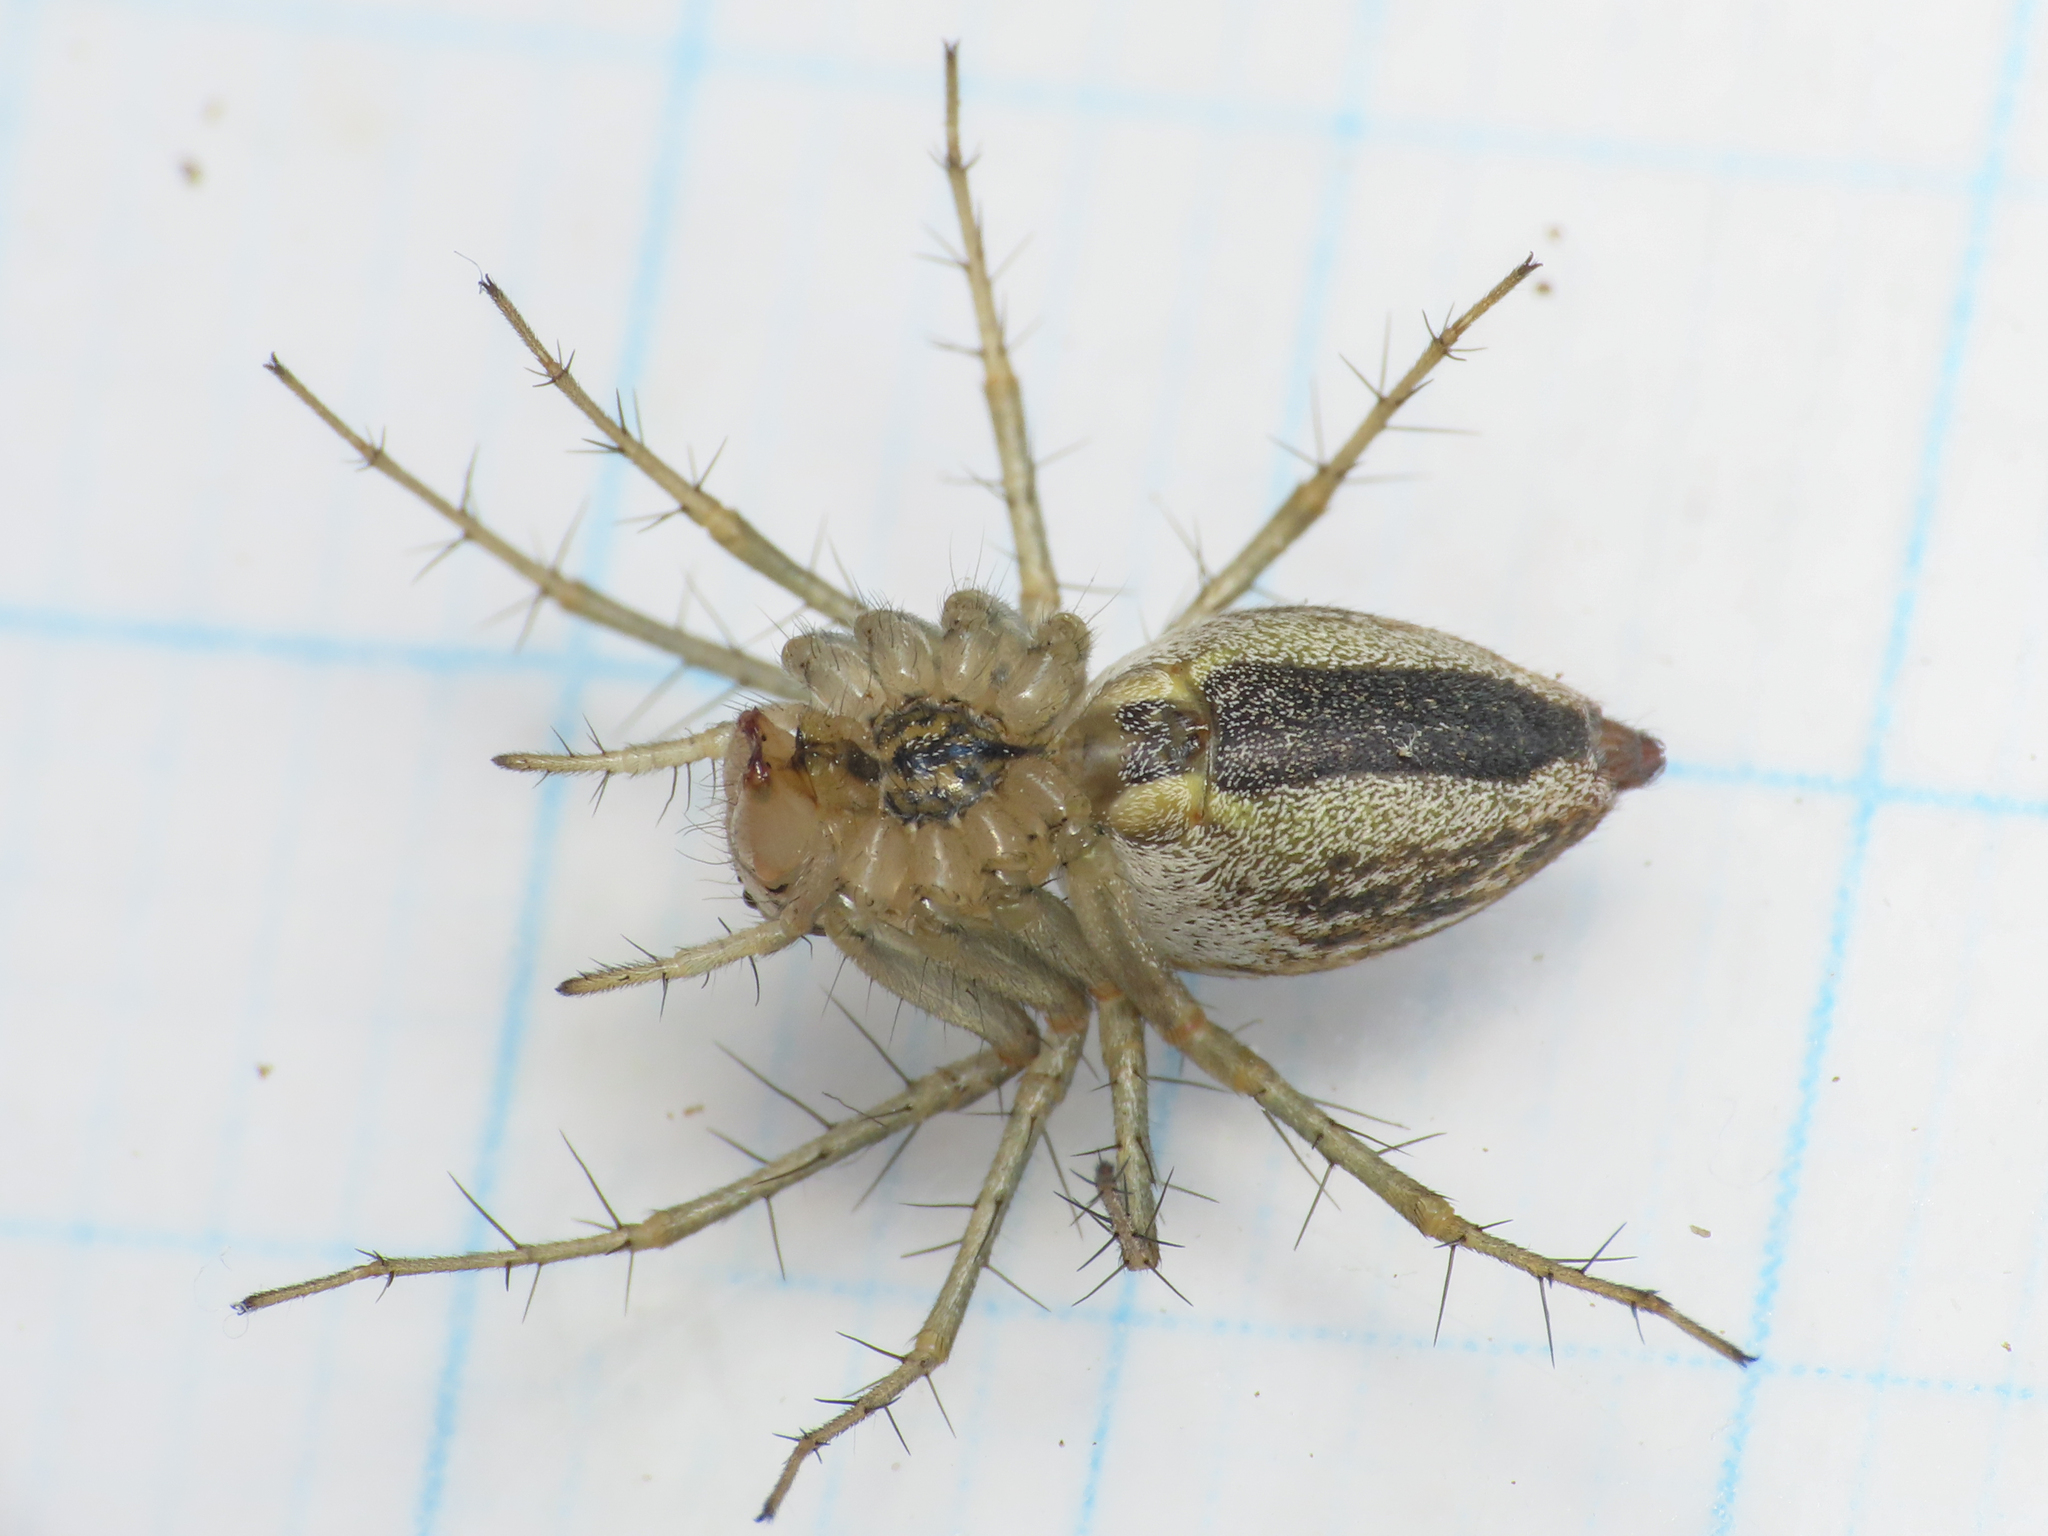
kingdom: Animalia
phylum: Arthropoda
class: Arachnida
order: Araneae
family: Oxyopidae
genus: Oxyopes
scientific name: Oxyopes lineatus
